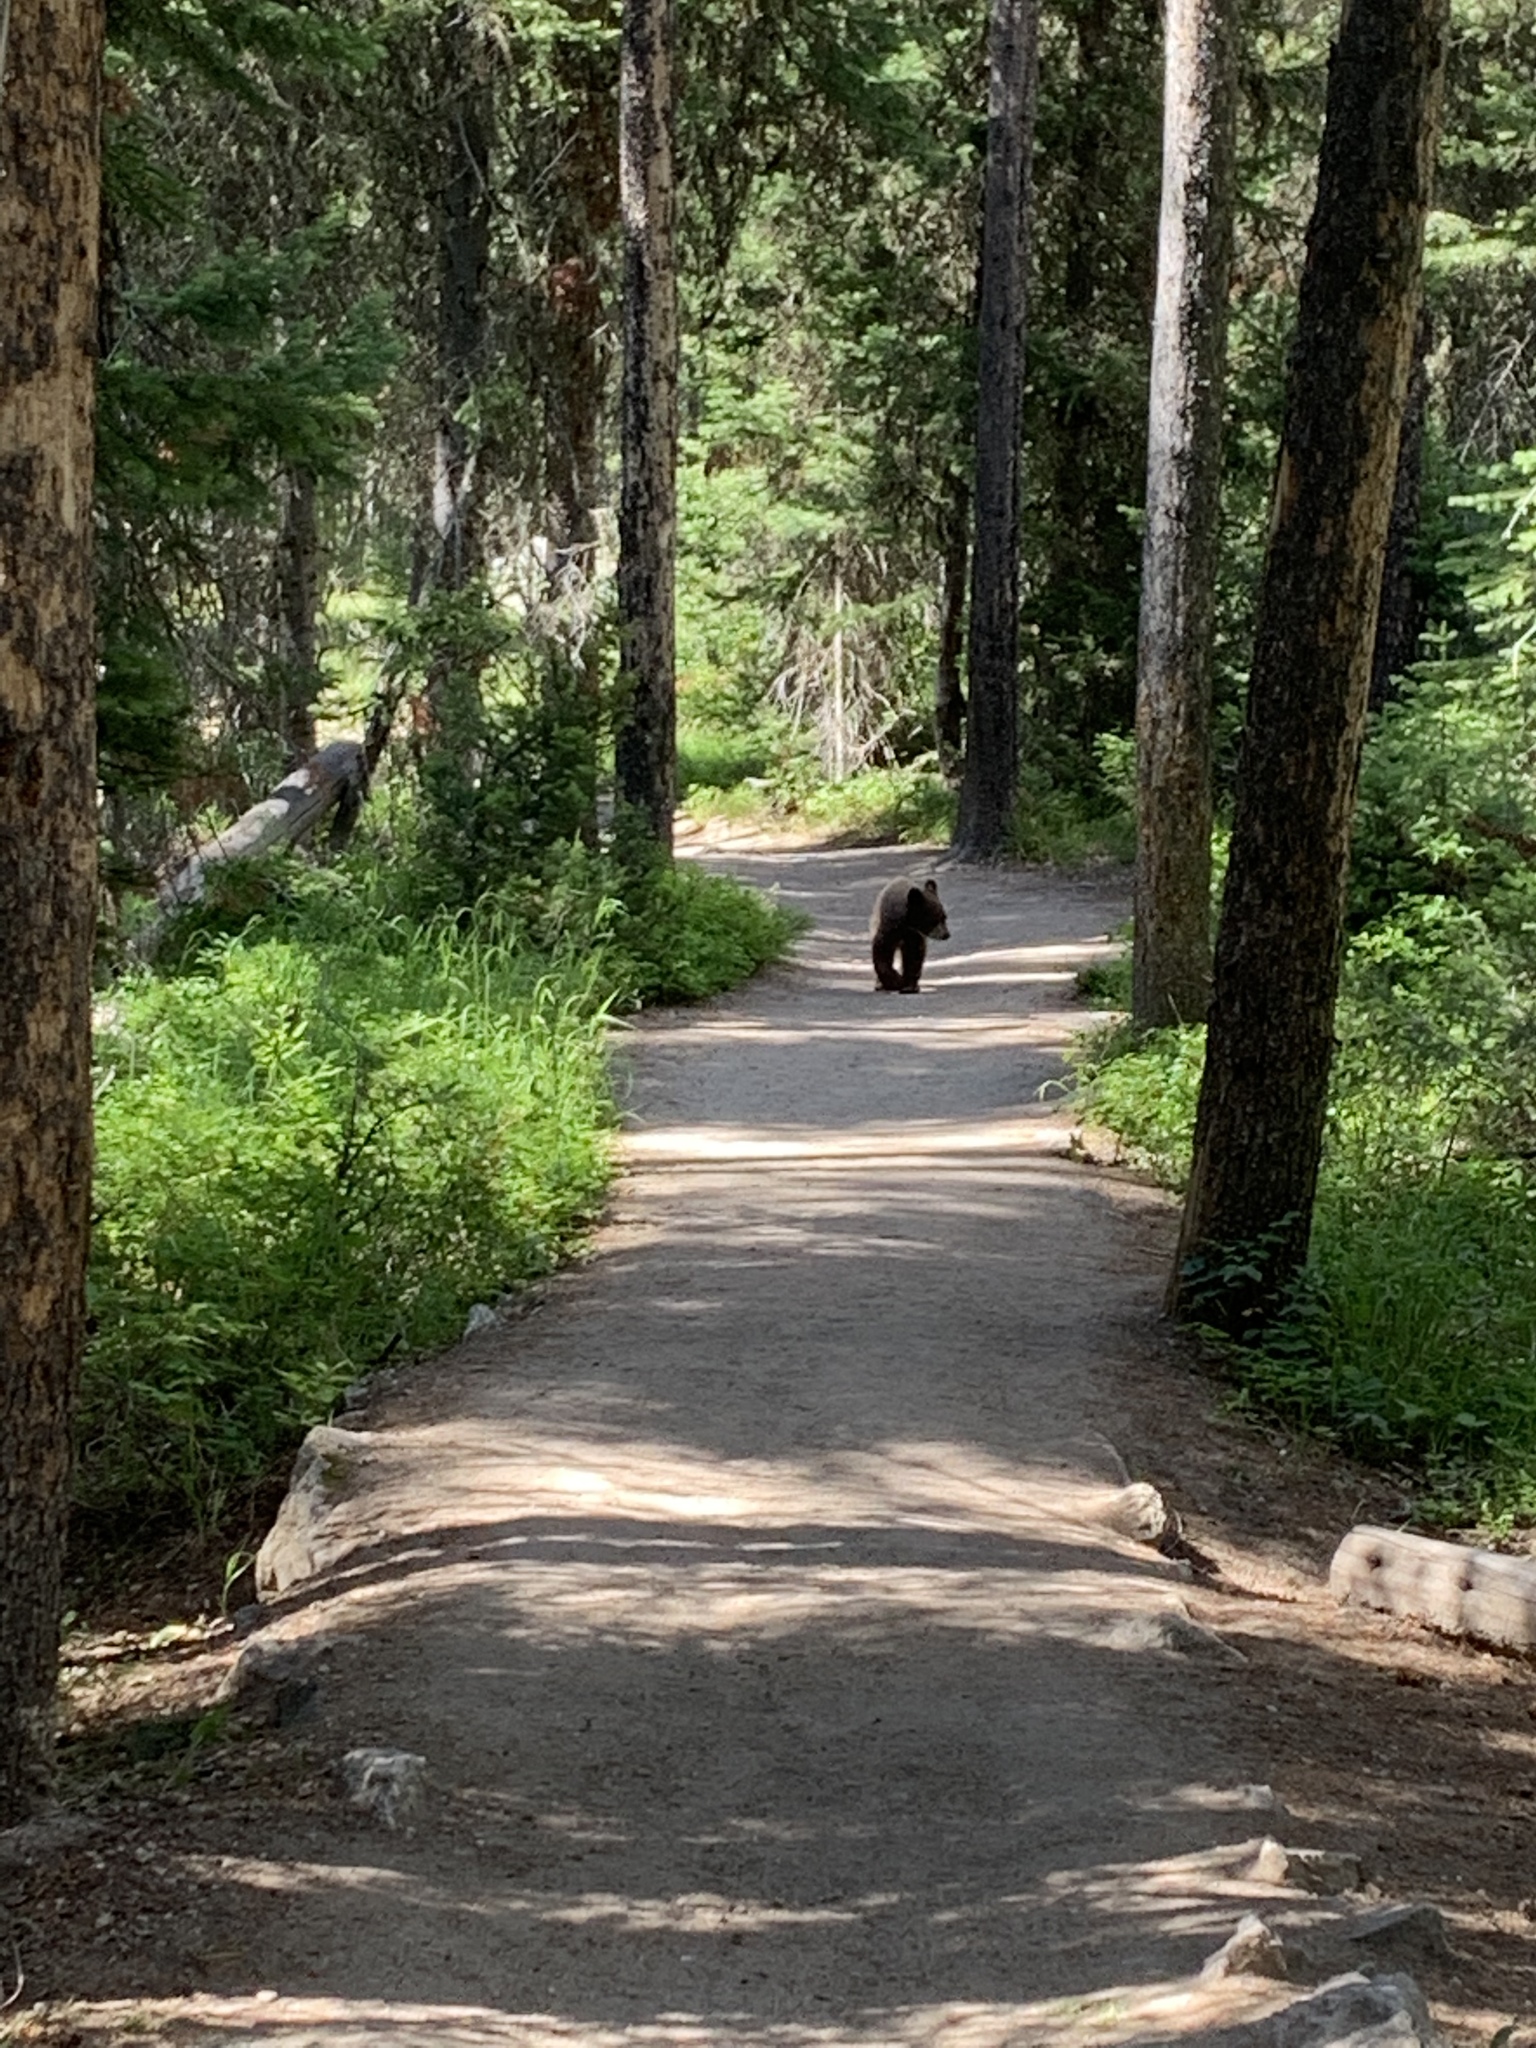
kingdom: Animalia
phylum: Chordata
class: Mammalia
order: Carnivora
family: Ursidae
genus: Ursus
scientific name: Ursus americanus
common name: American black bear
